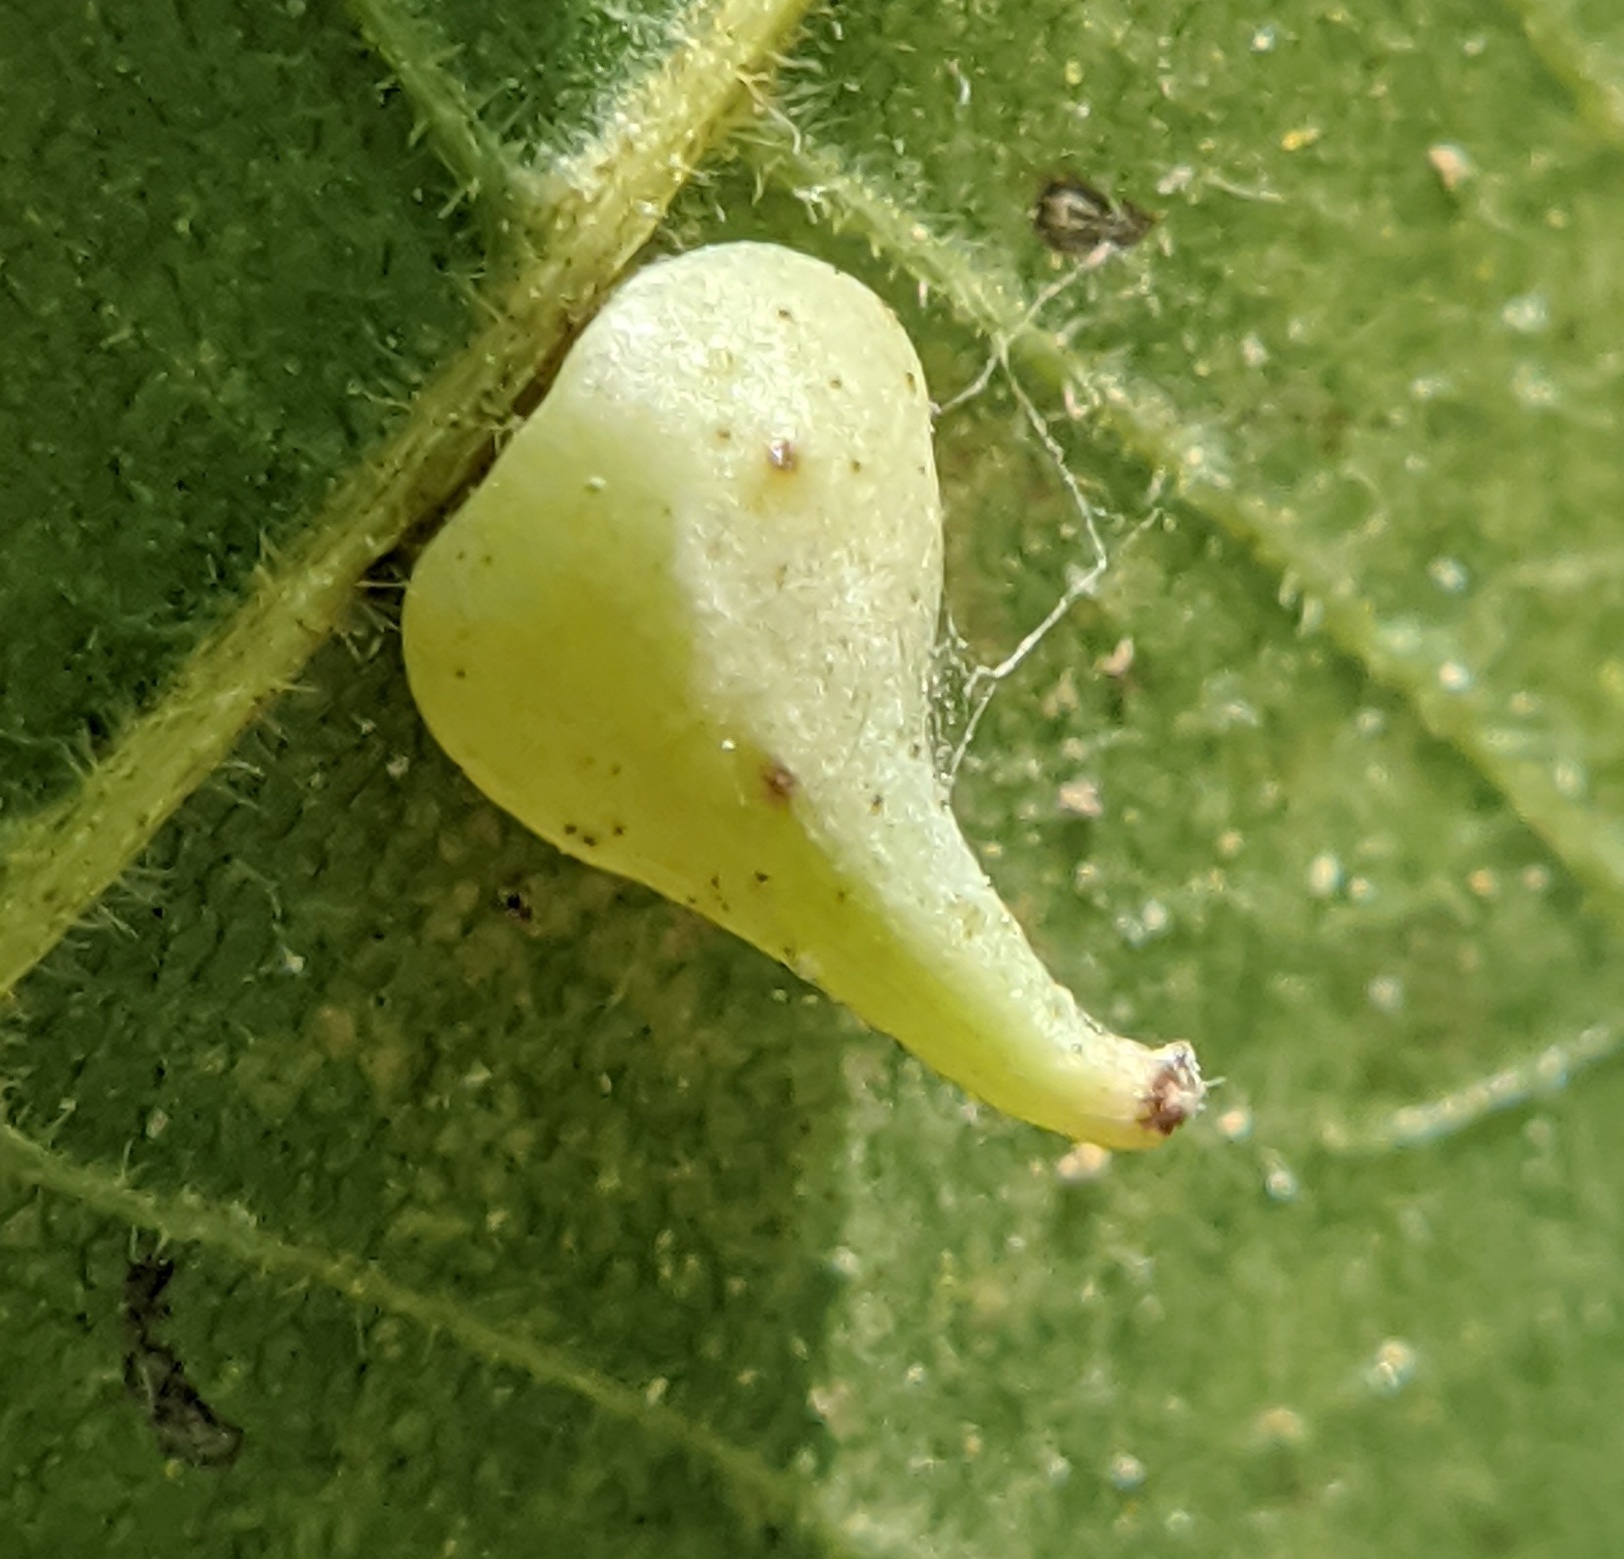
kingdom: Animalia
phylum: Arthropoda
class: Insecta
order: Diptera
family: Cecidomyiidae
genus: Caryomyia
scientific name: Caryomyia caryaecola
